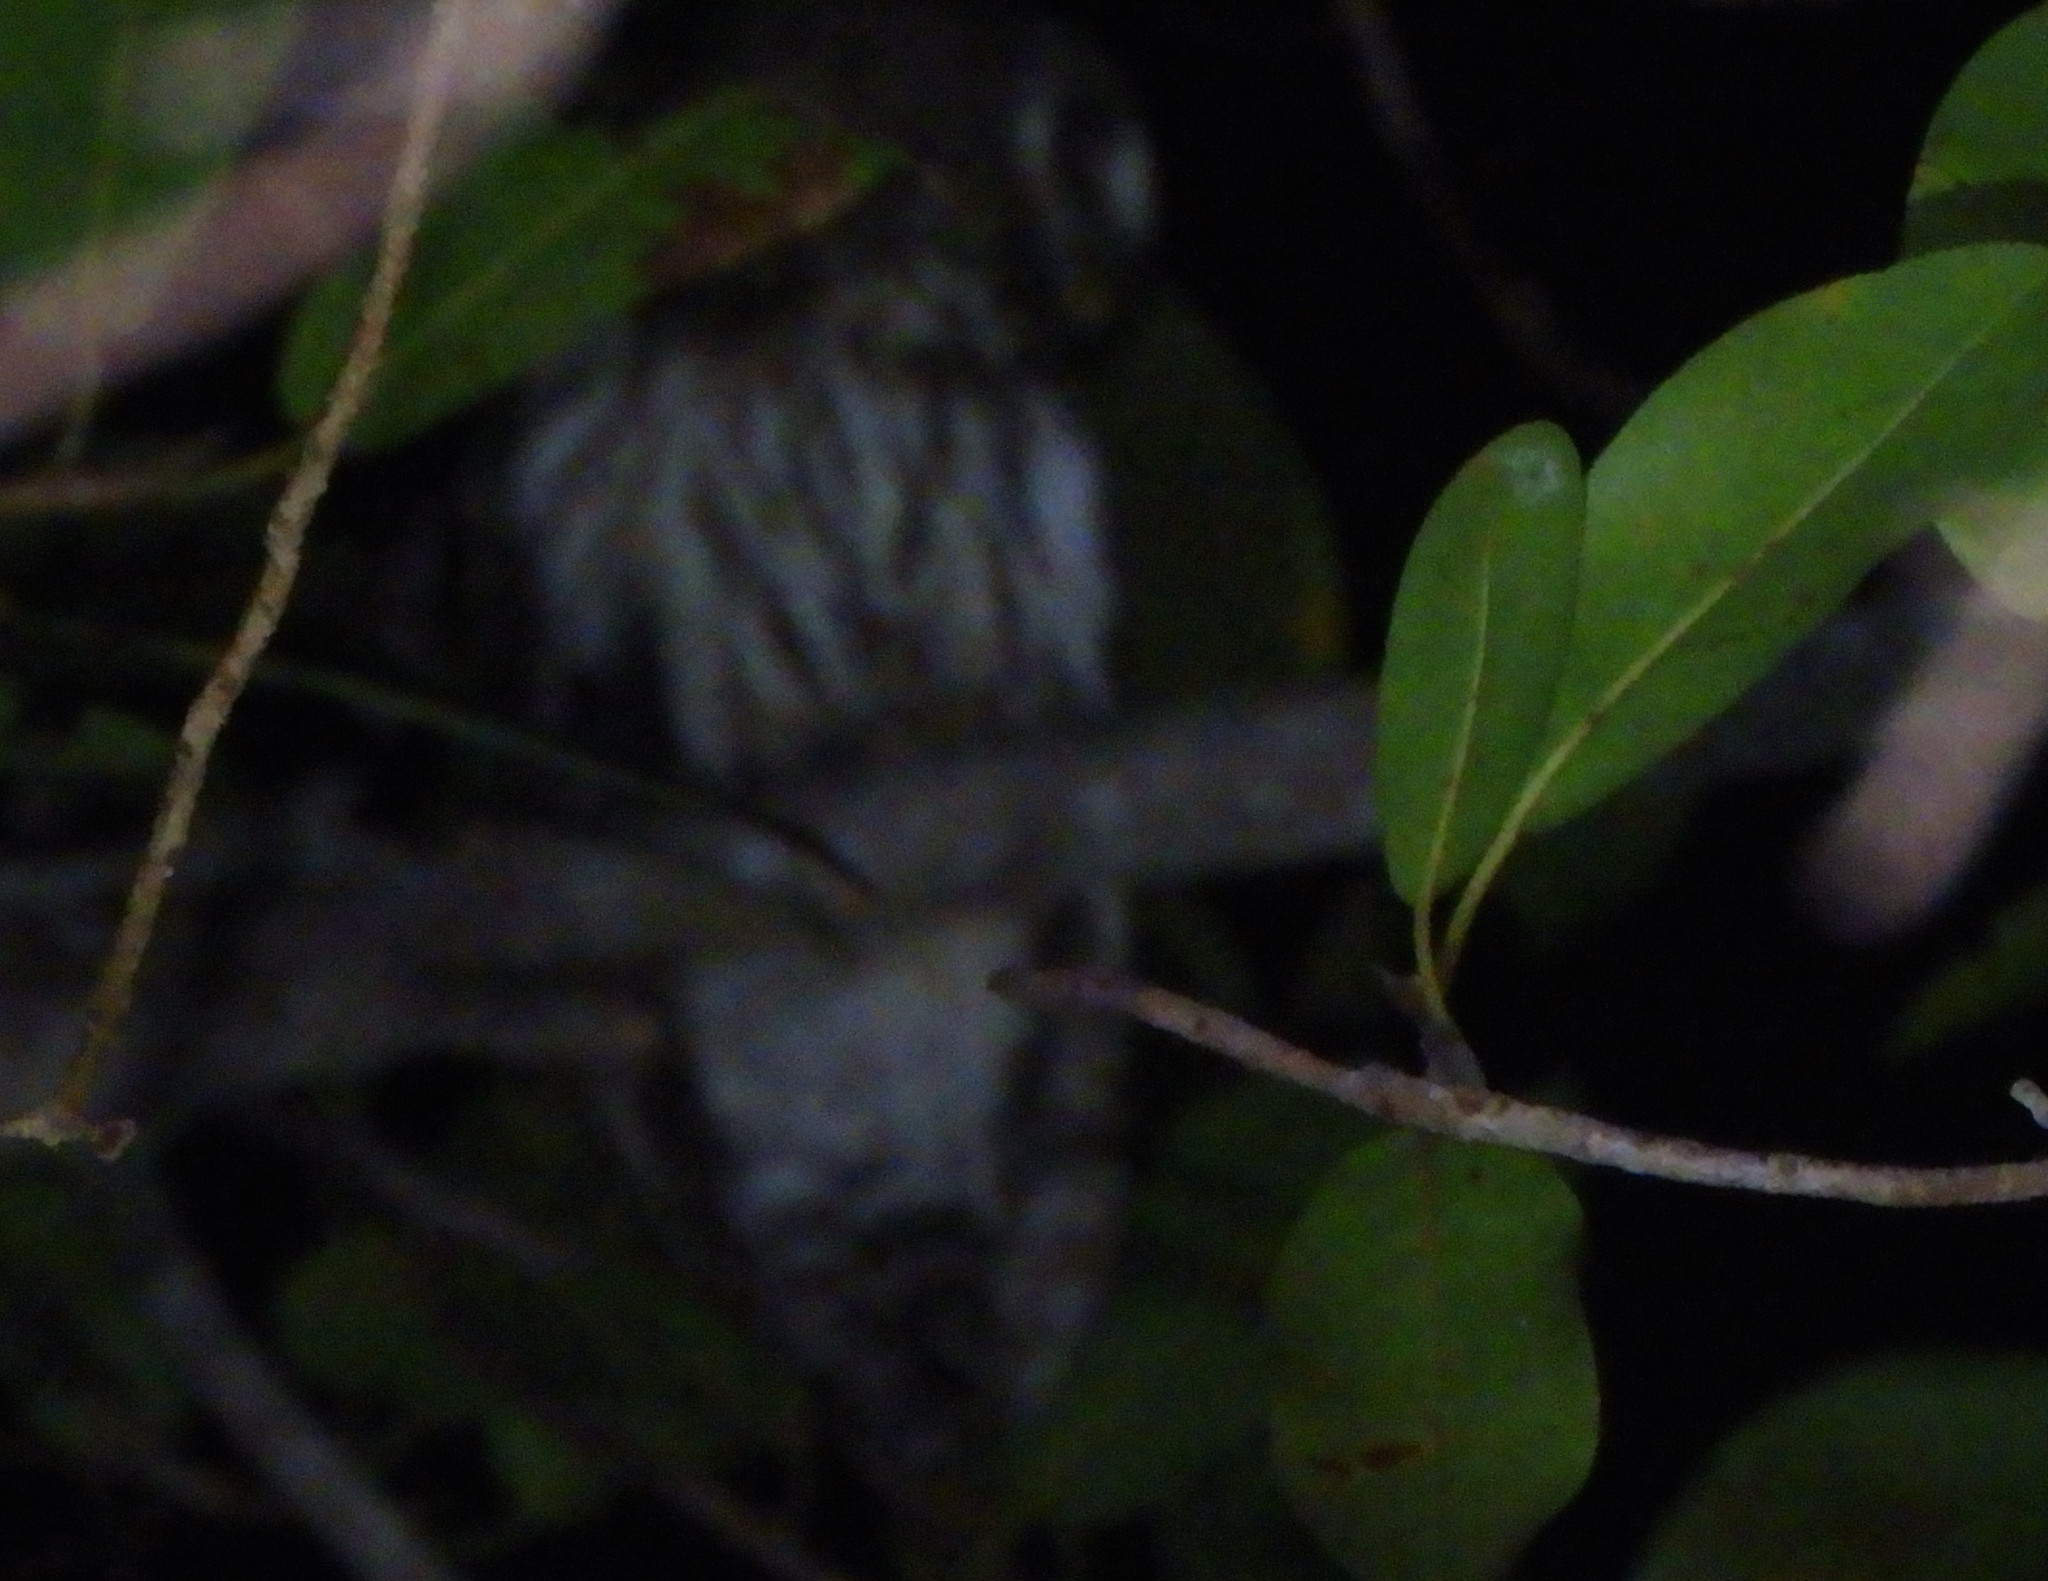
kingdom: Animalia
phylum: Chordata
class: Aves
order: Strigiformes
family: Strigidae
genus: Strix
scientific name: Strix virgata
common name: Mottled owl
